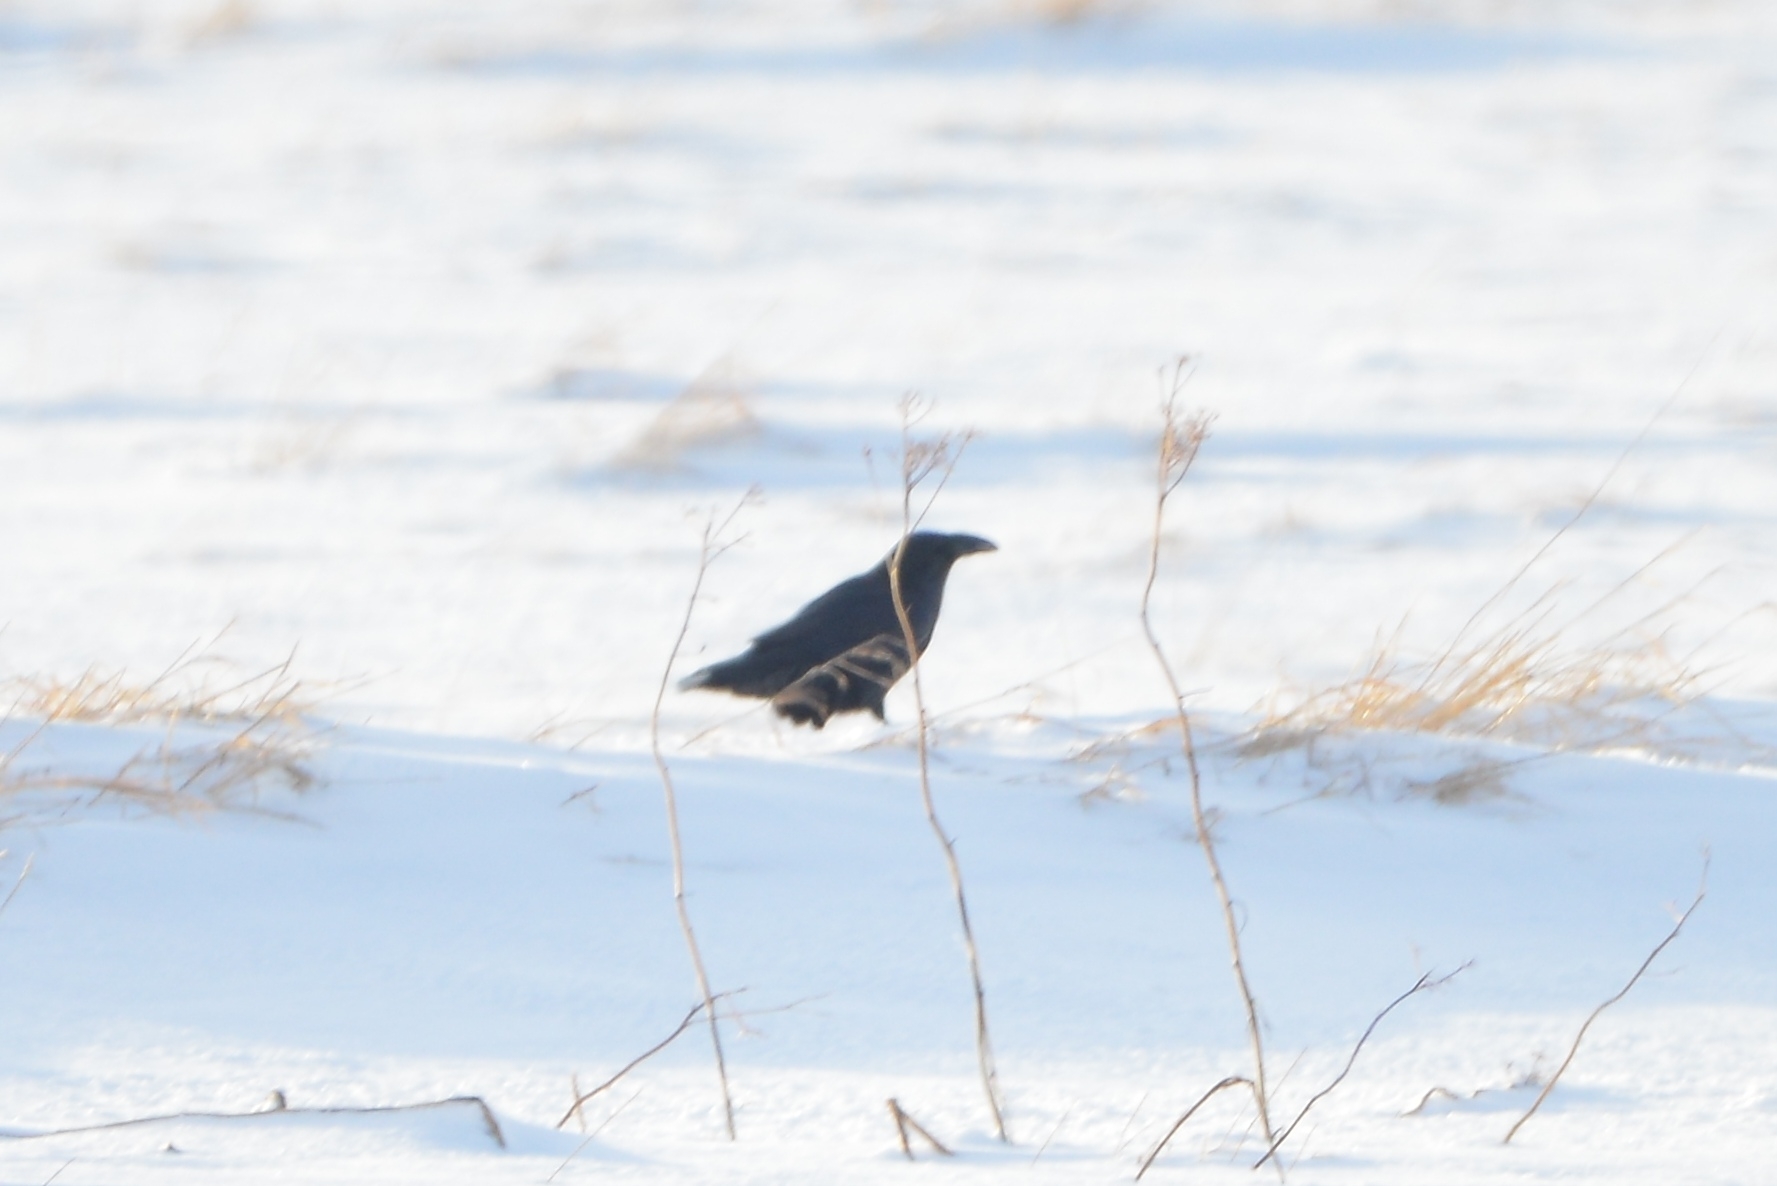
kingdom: Animalia
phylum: Chordata
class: Aves
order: Passeriformes
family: Corvidae
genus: Corvus
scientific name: Corvus corax
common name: Common raven
